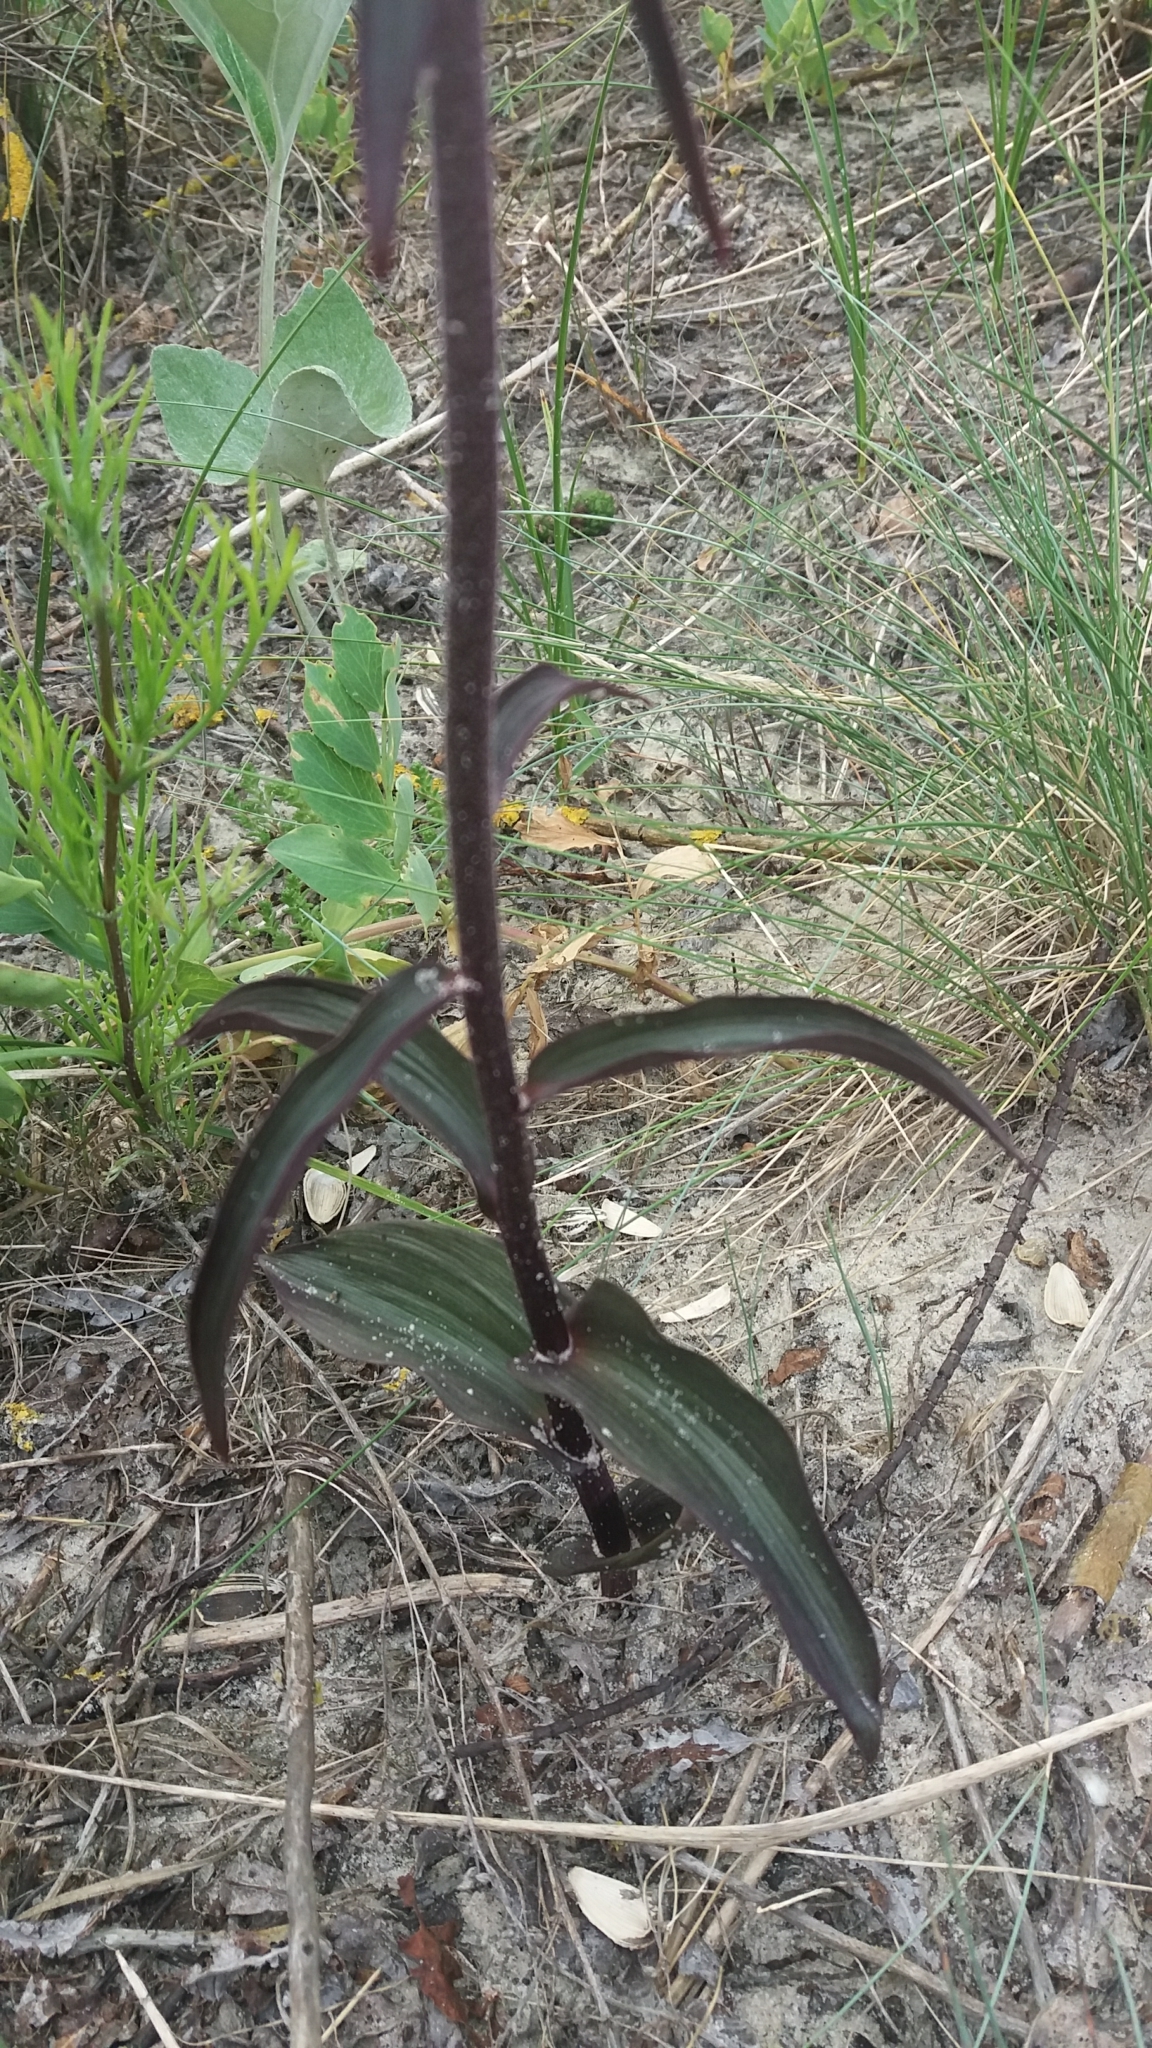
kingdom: Plantae
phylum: Tracheophyta
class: Liliopsida
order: Asparagales
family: Orchidaceae
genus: Epipactis
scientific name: Epipactis atrorubens
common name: Dark-red helleborine
